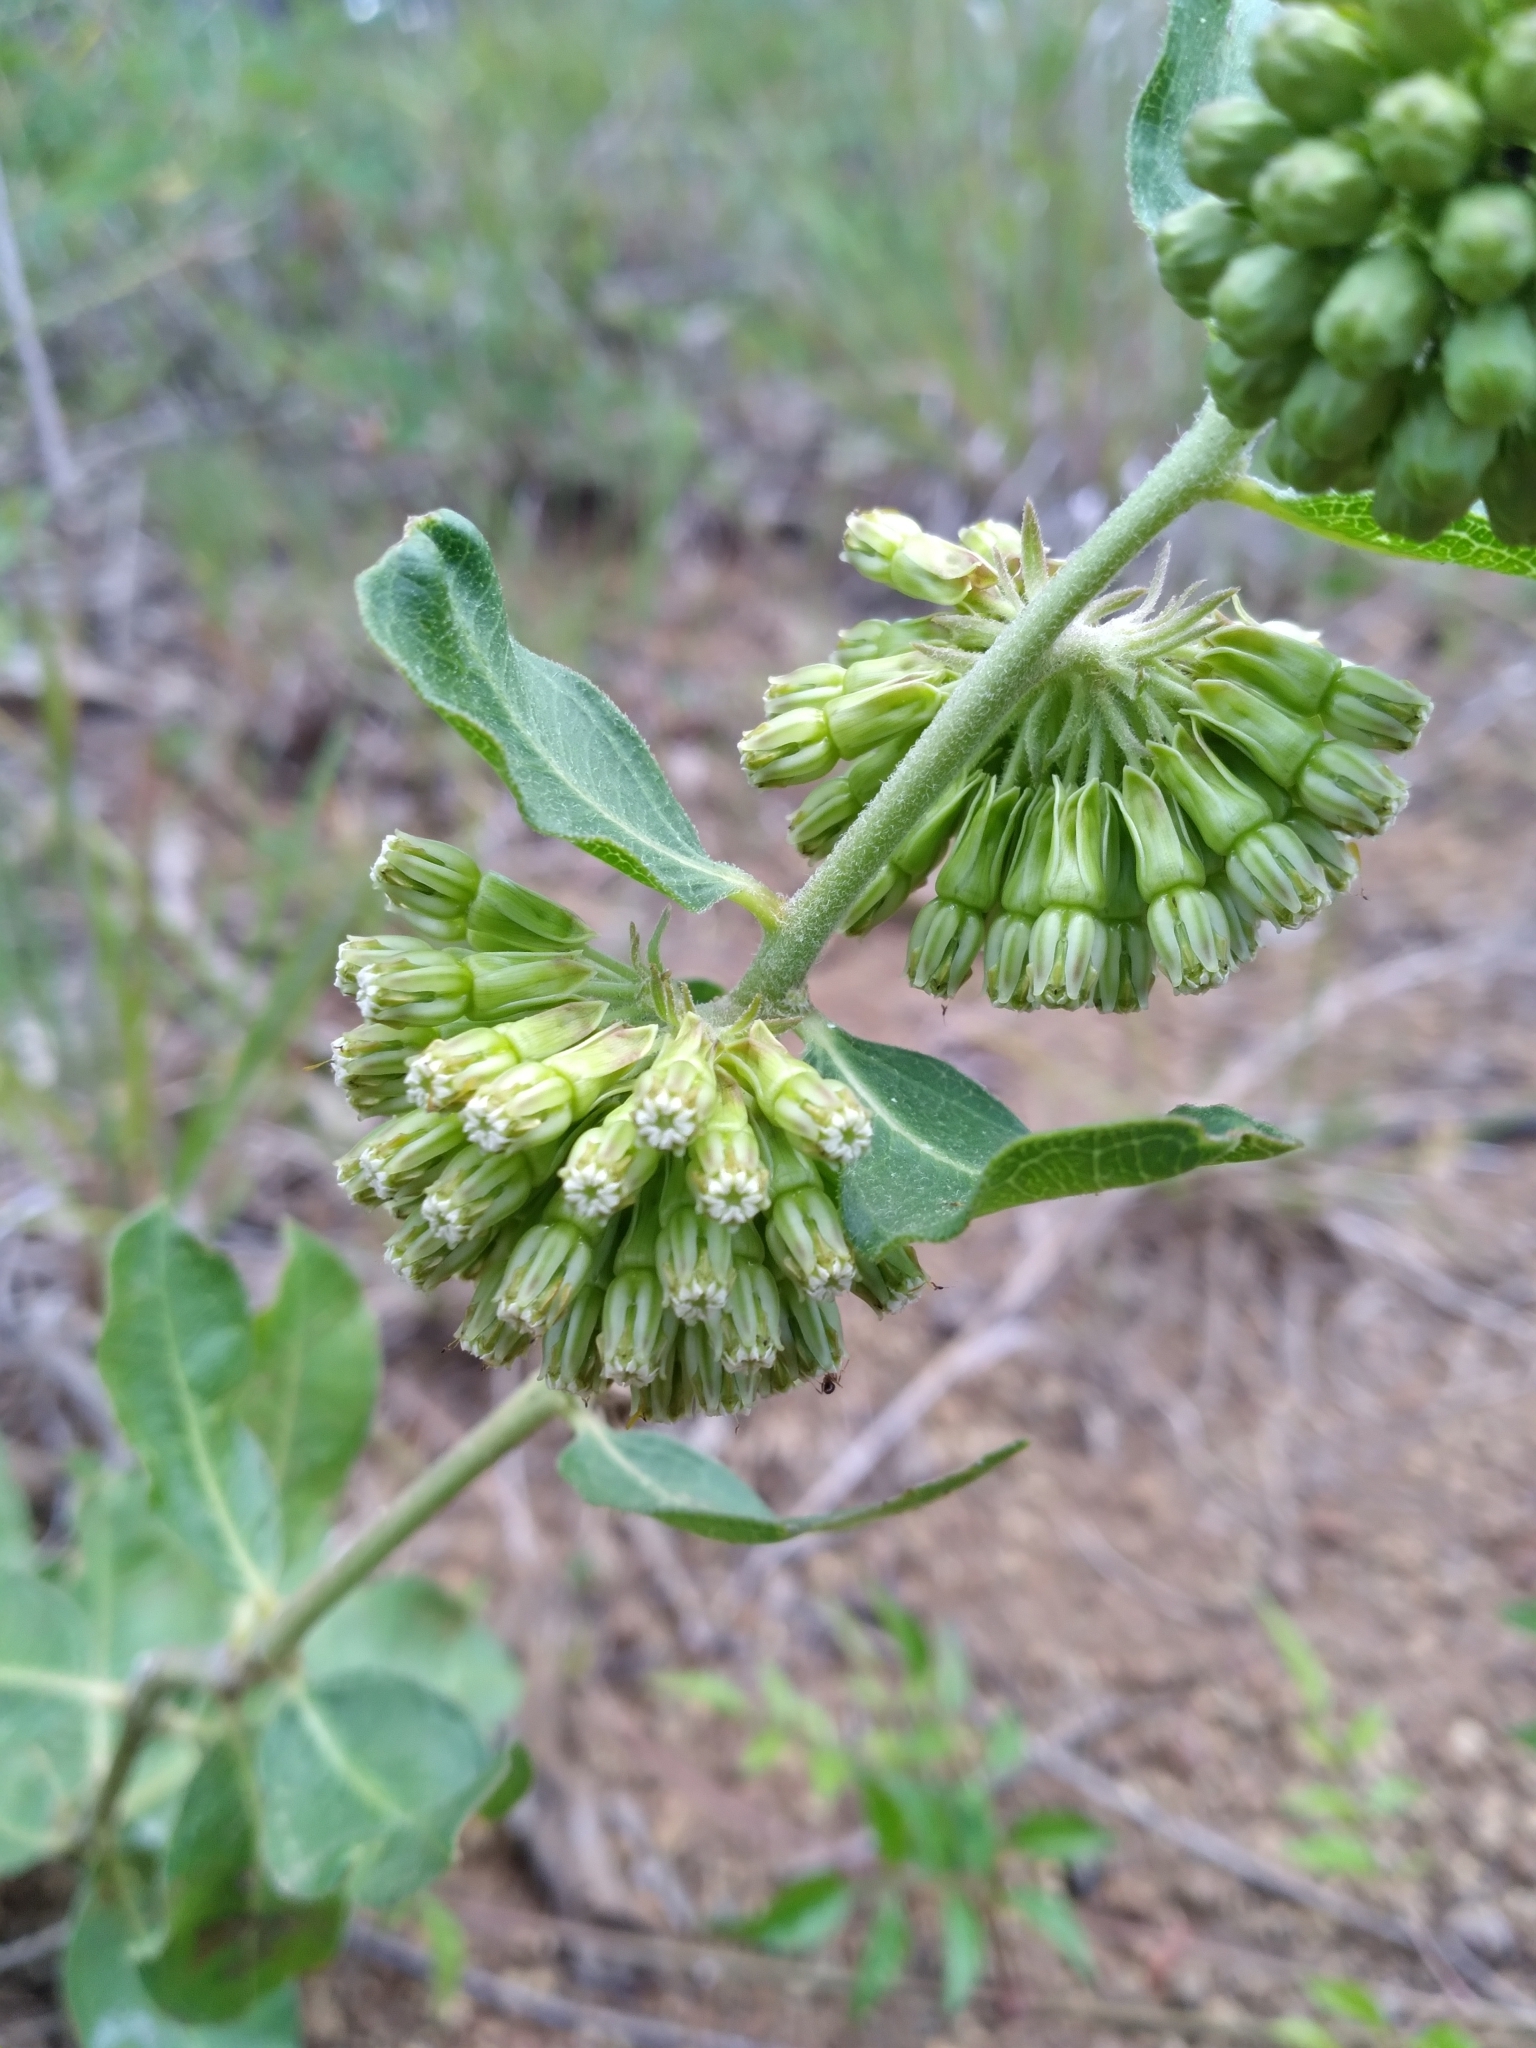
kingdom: Plantae
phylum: Tracheophyta
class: Magnoliopsida
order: Gentianales
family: Apocynaceae
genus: Asclepias
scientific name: Asclepias viridiflora
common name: Green comet milkweed
